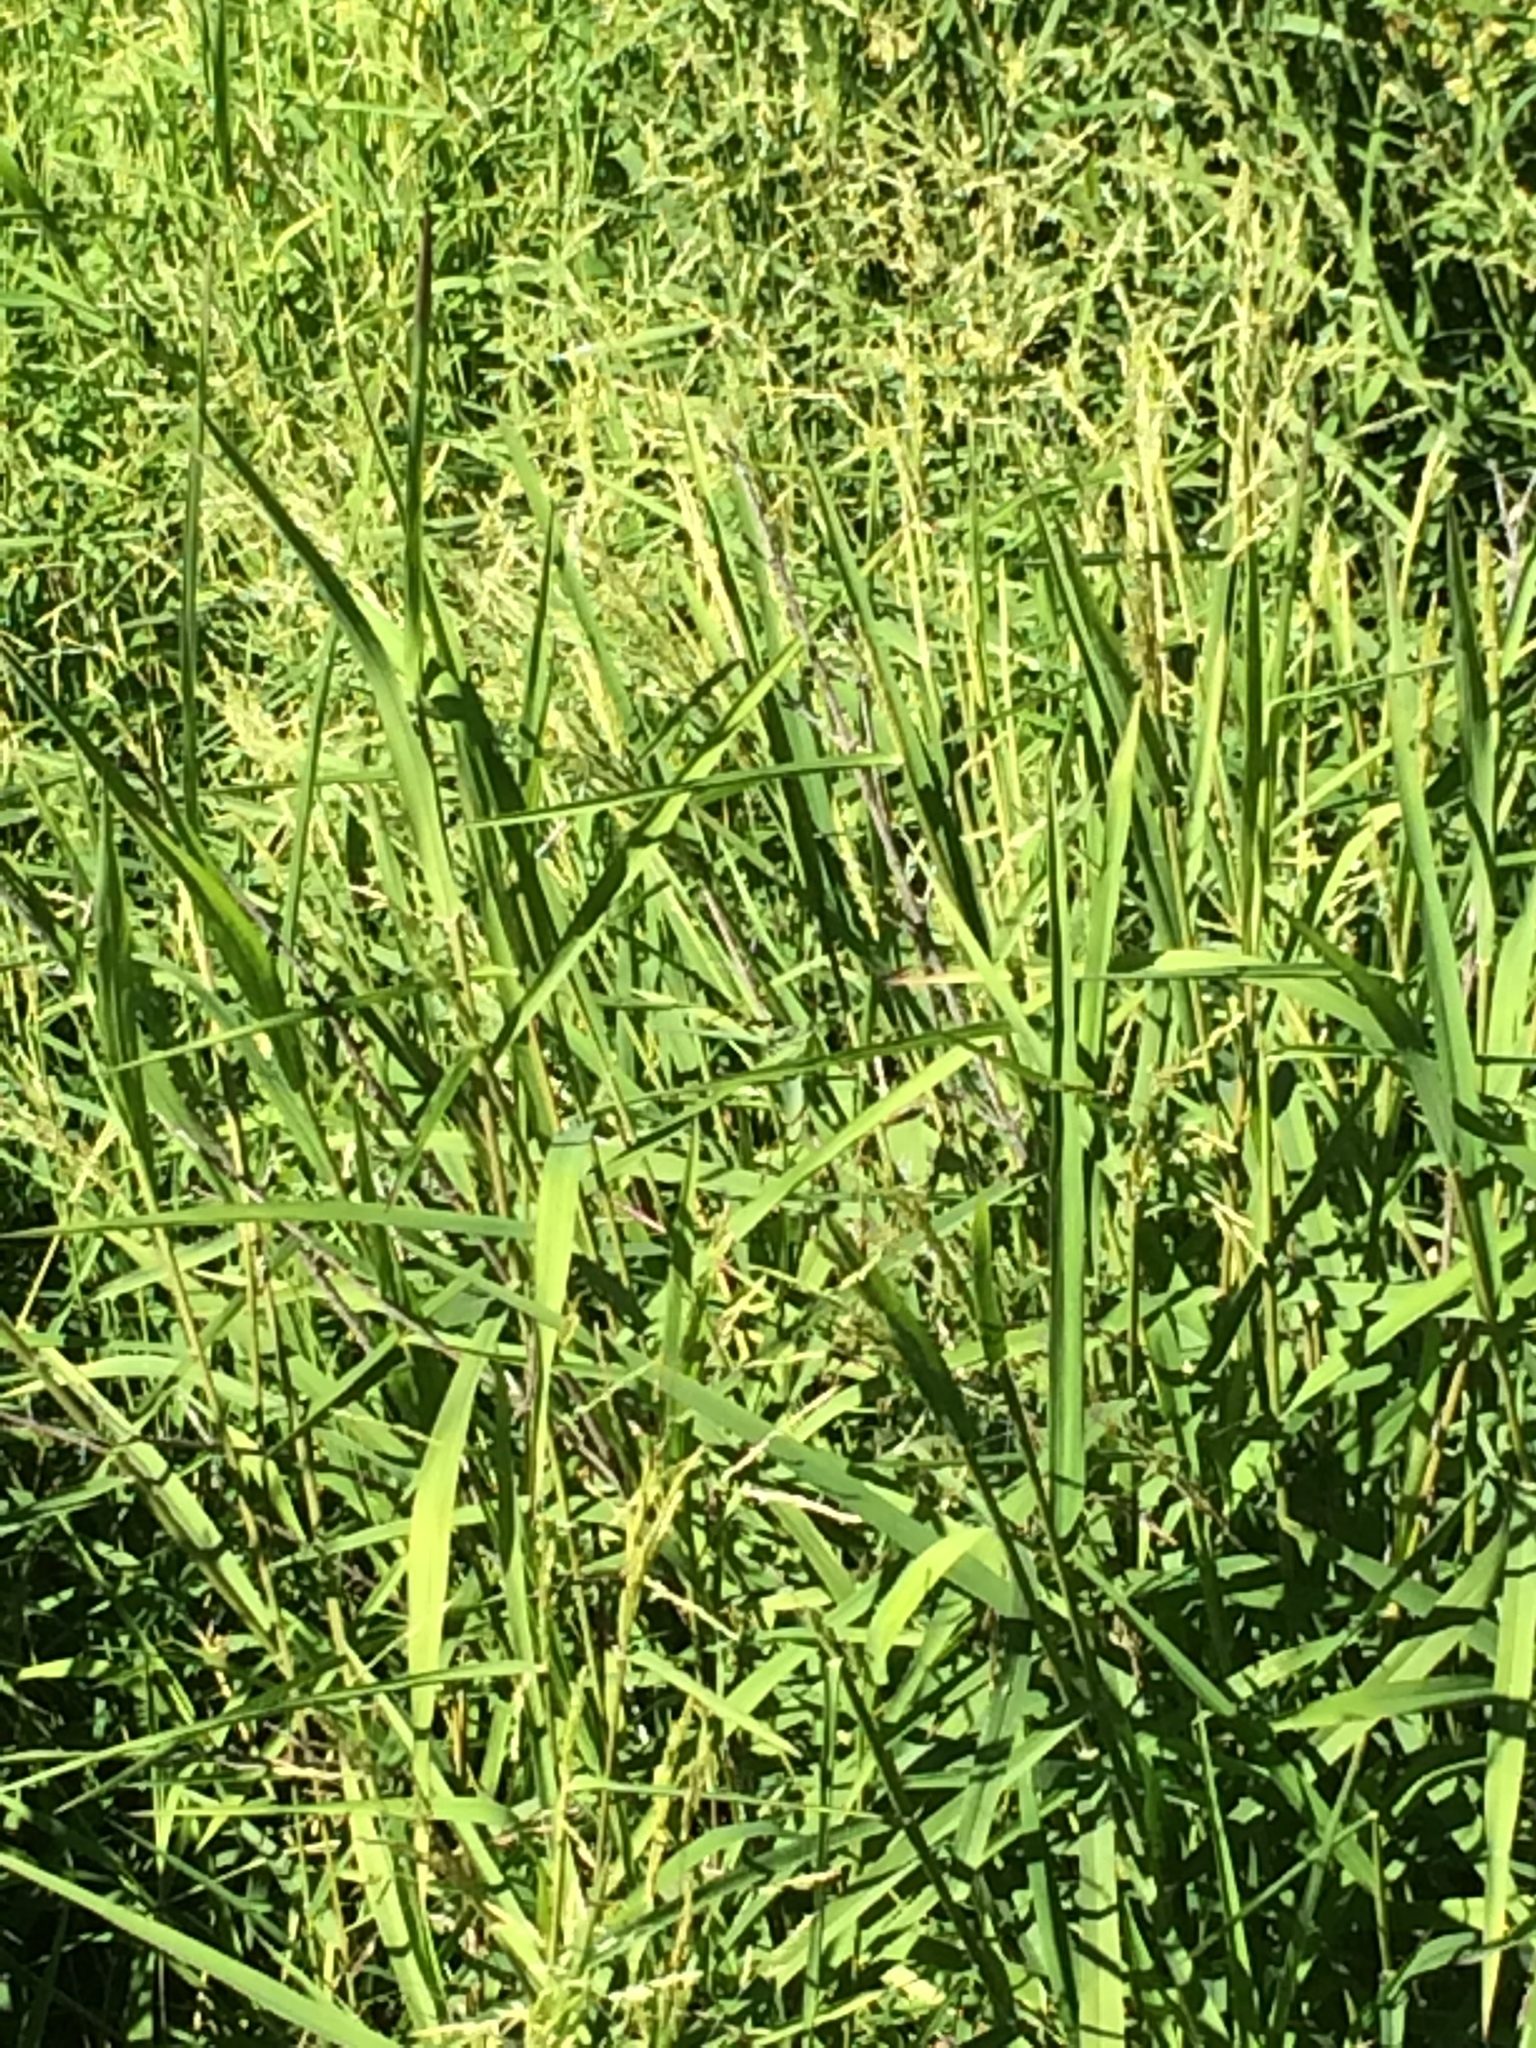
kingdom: Plantae
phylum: Tracheophyta
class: Liliopsida
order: Poales
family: Poaceae
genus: Phalaris
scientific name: Phalaris arundinacea
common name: Reed canary-grass
